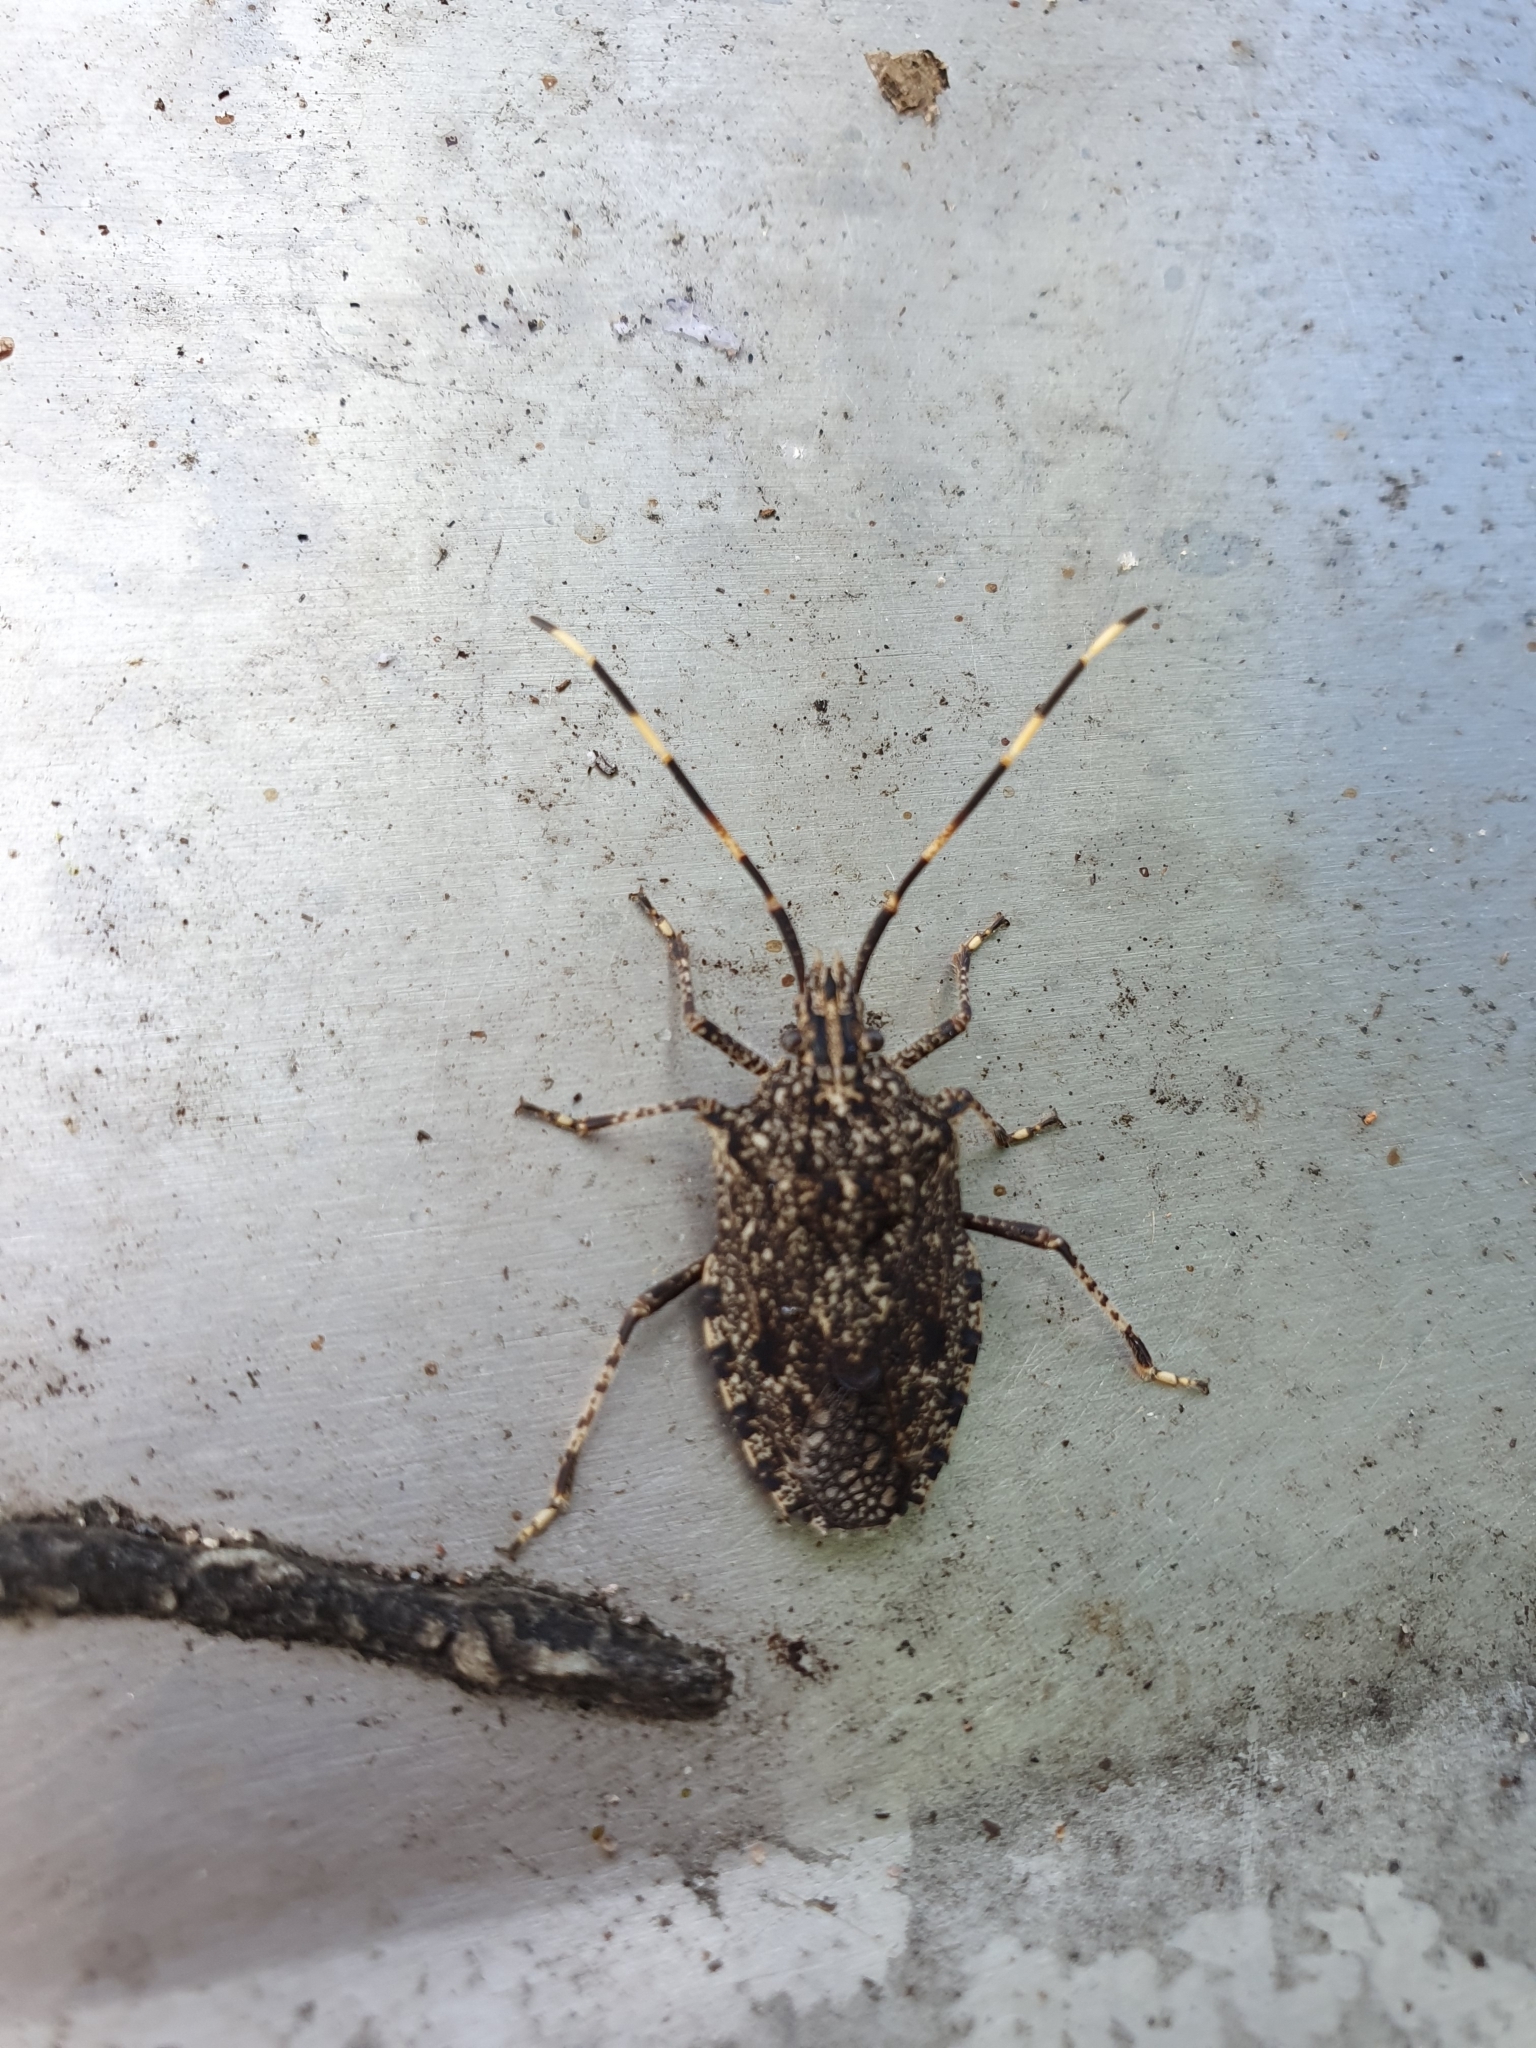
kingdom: Animalia
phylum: Arthropoda
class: Insecta
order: Hemiptera
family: Pentatomidae
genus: Alcaeus
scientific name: Alcaeus
